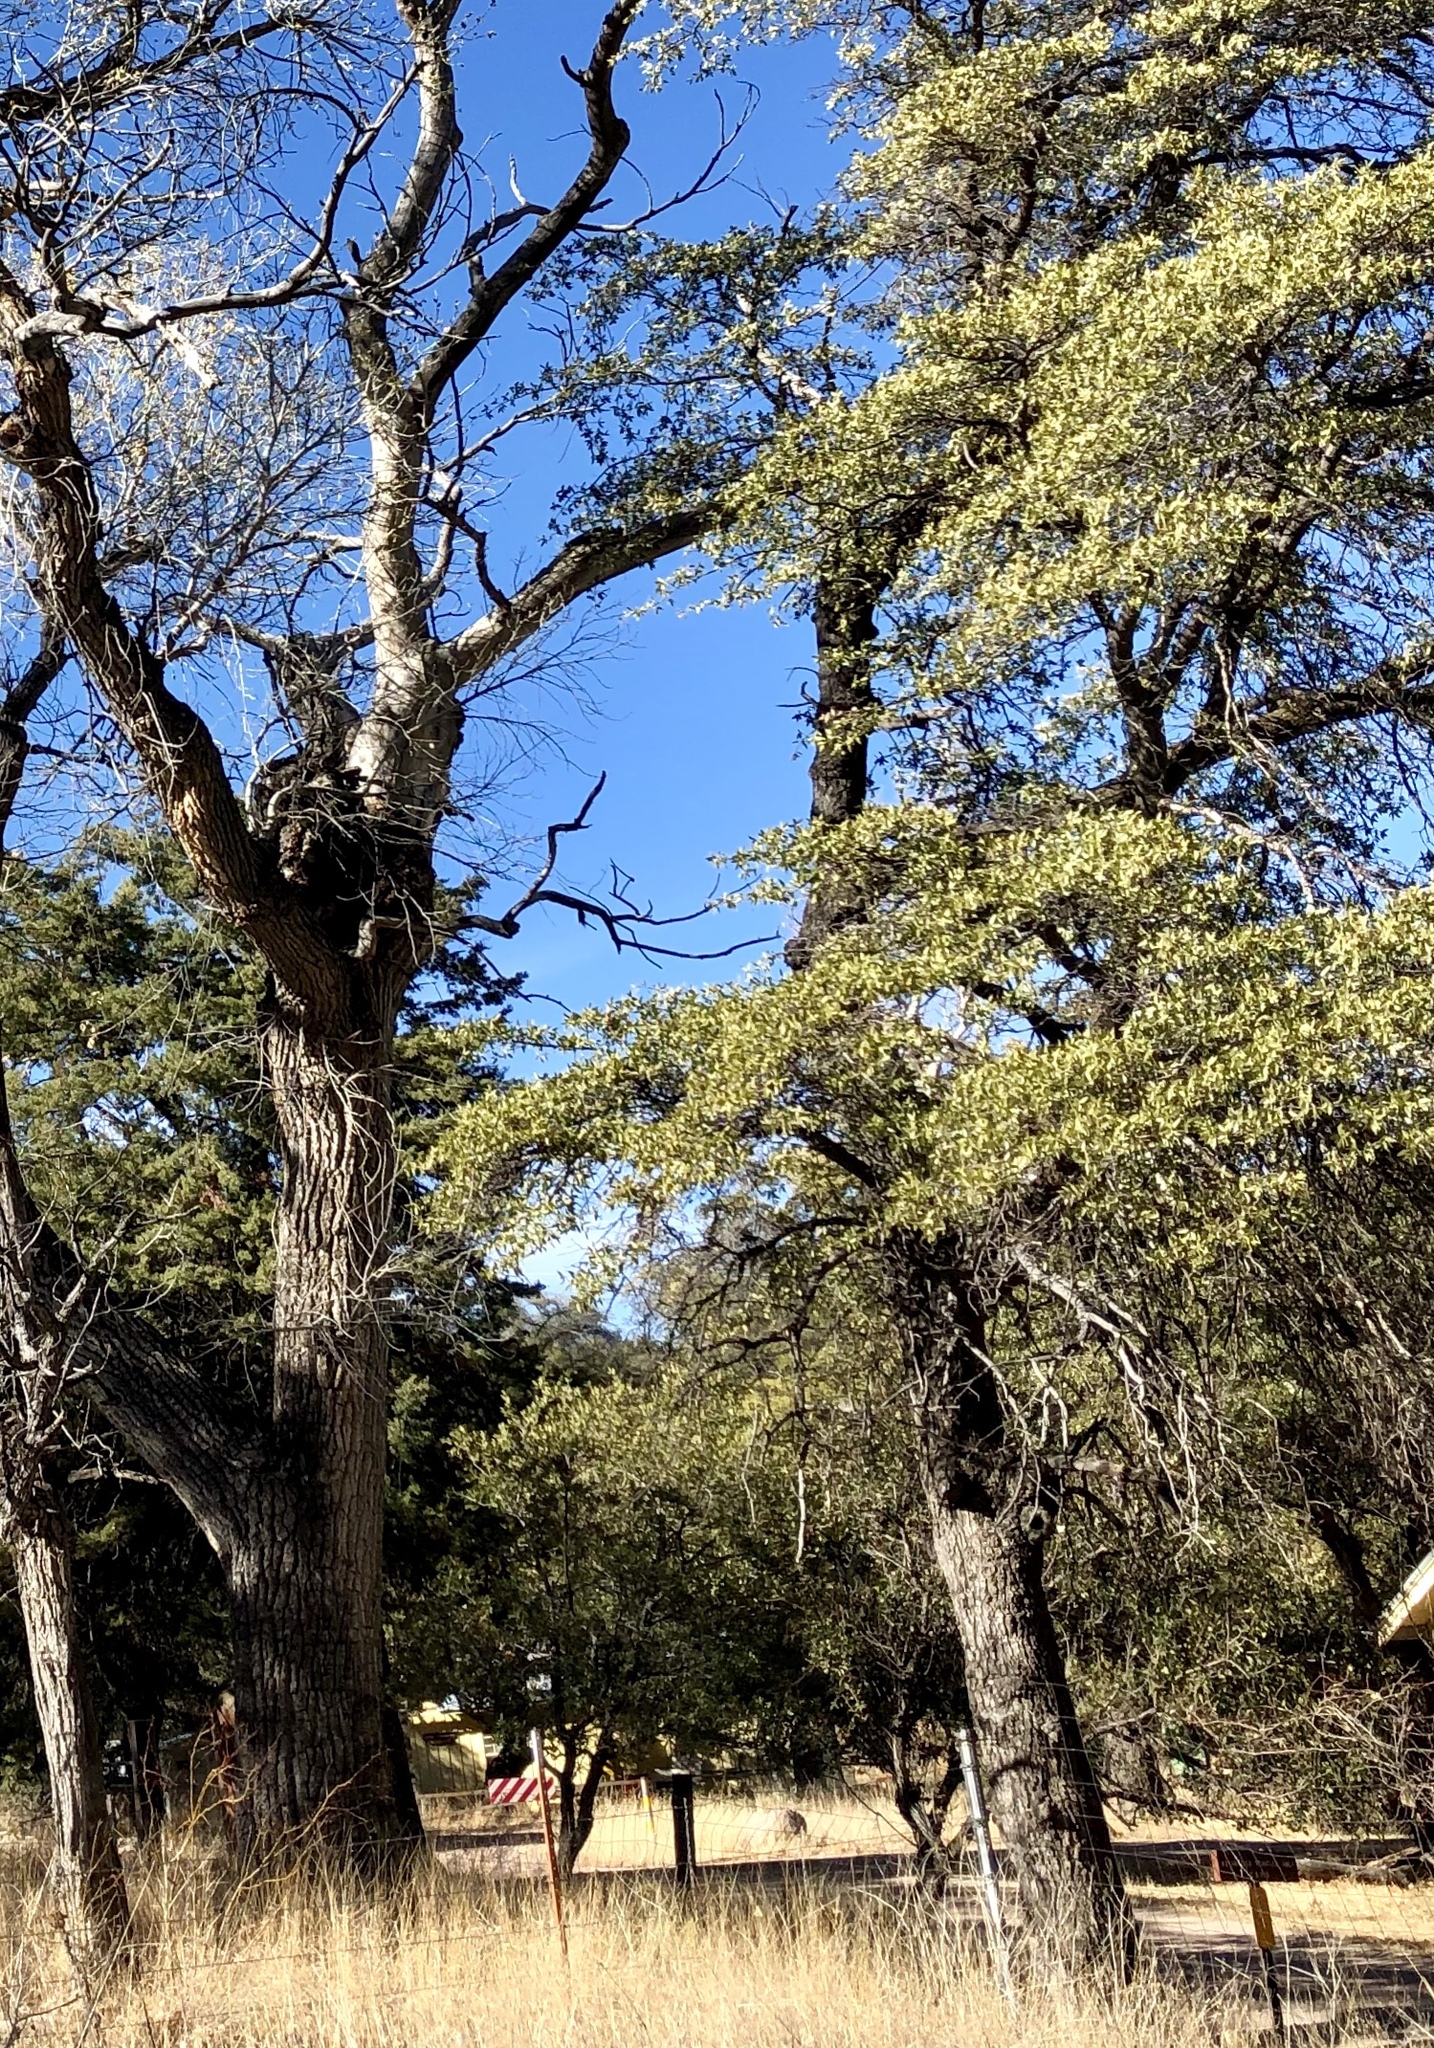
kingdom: Plantae
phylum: Tracheophyta
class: Magnoliopsida
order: Fagales
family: Fagaceae
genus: Quercus
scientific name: Quercus arizonica
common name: Arizona white oak
